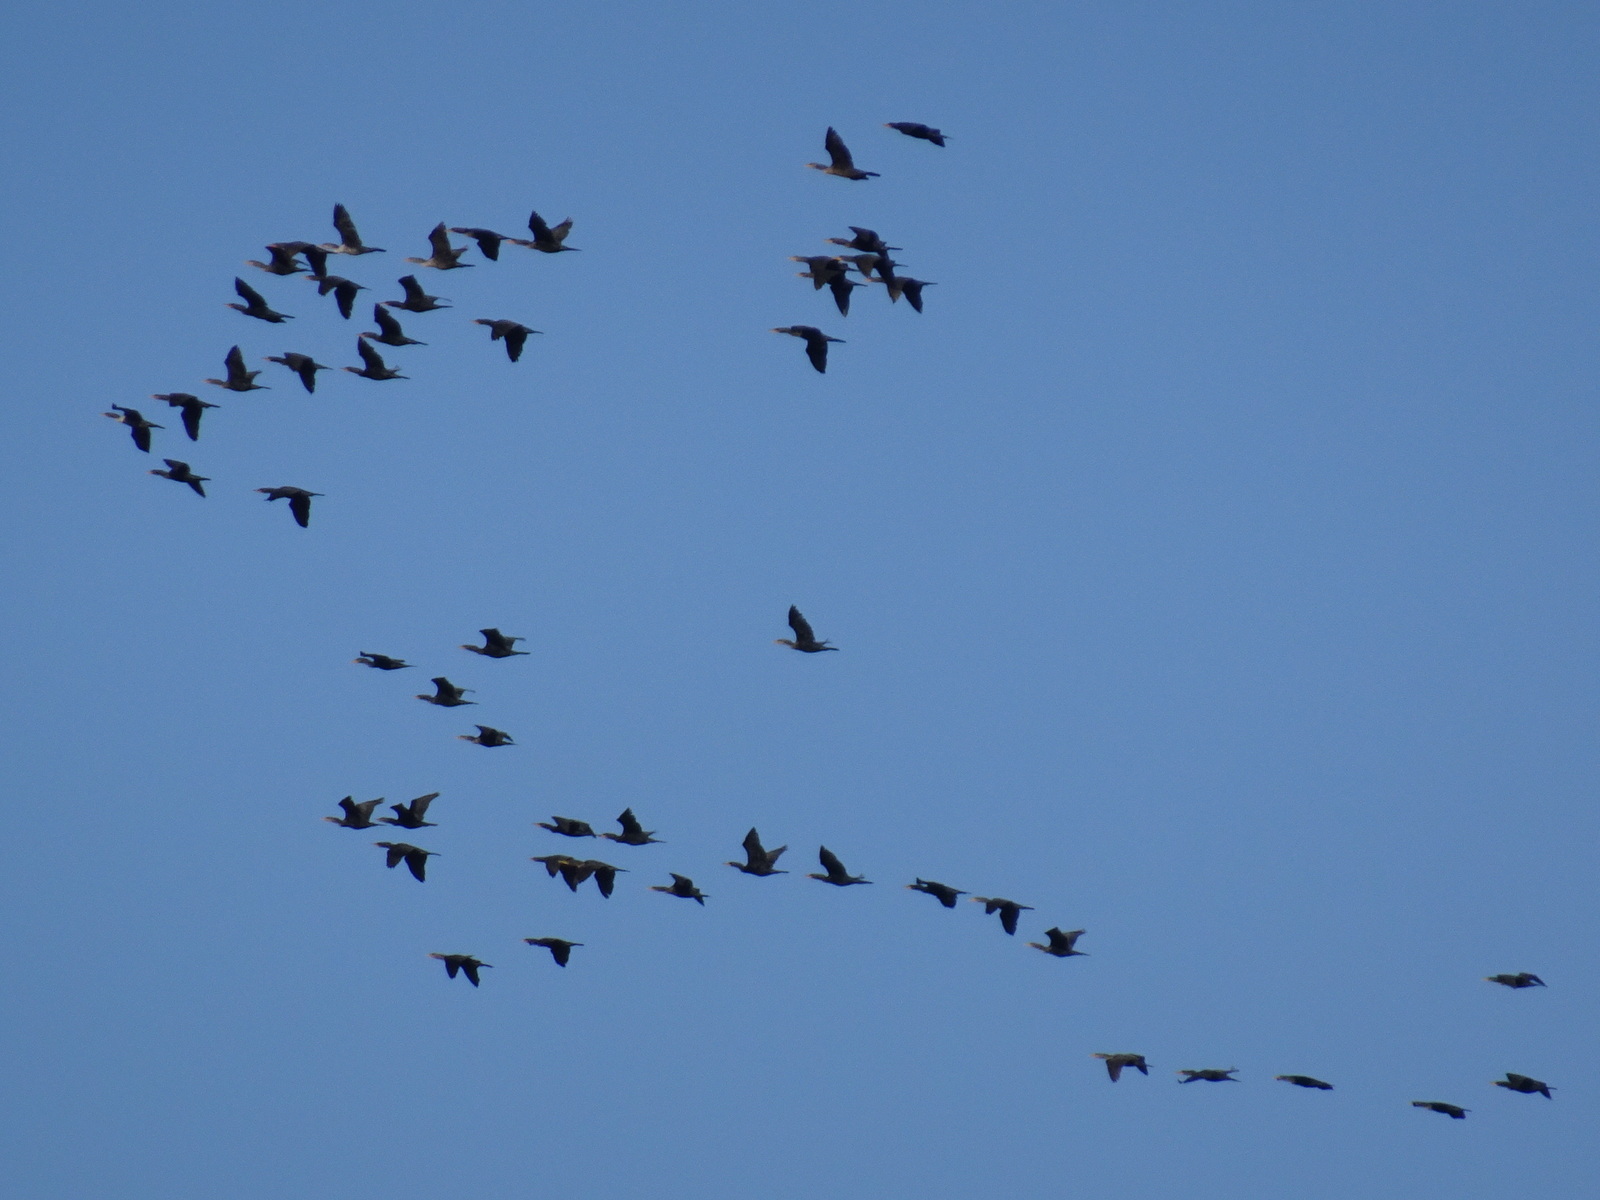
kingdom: Animalia
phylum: Chordata
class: Aves
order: Suliformes
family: Phalacrocoracidae
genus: Phalacrocorax
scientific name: Phalacrocorax auritus
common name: Double-crested cormorant
